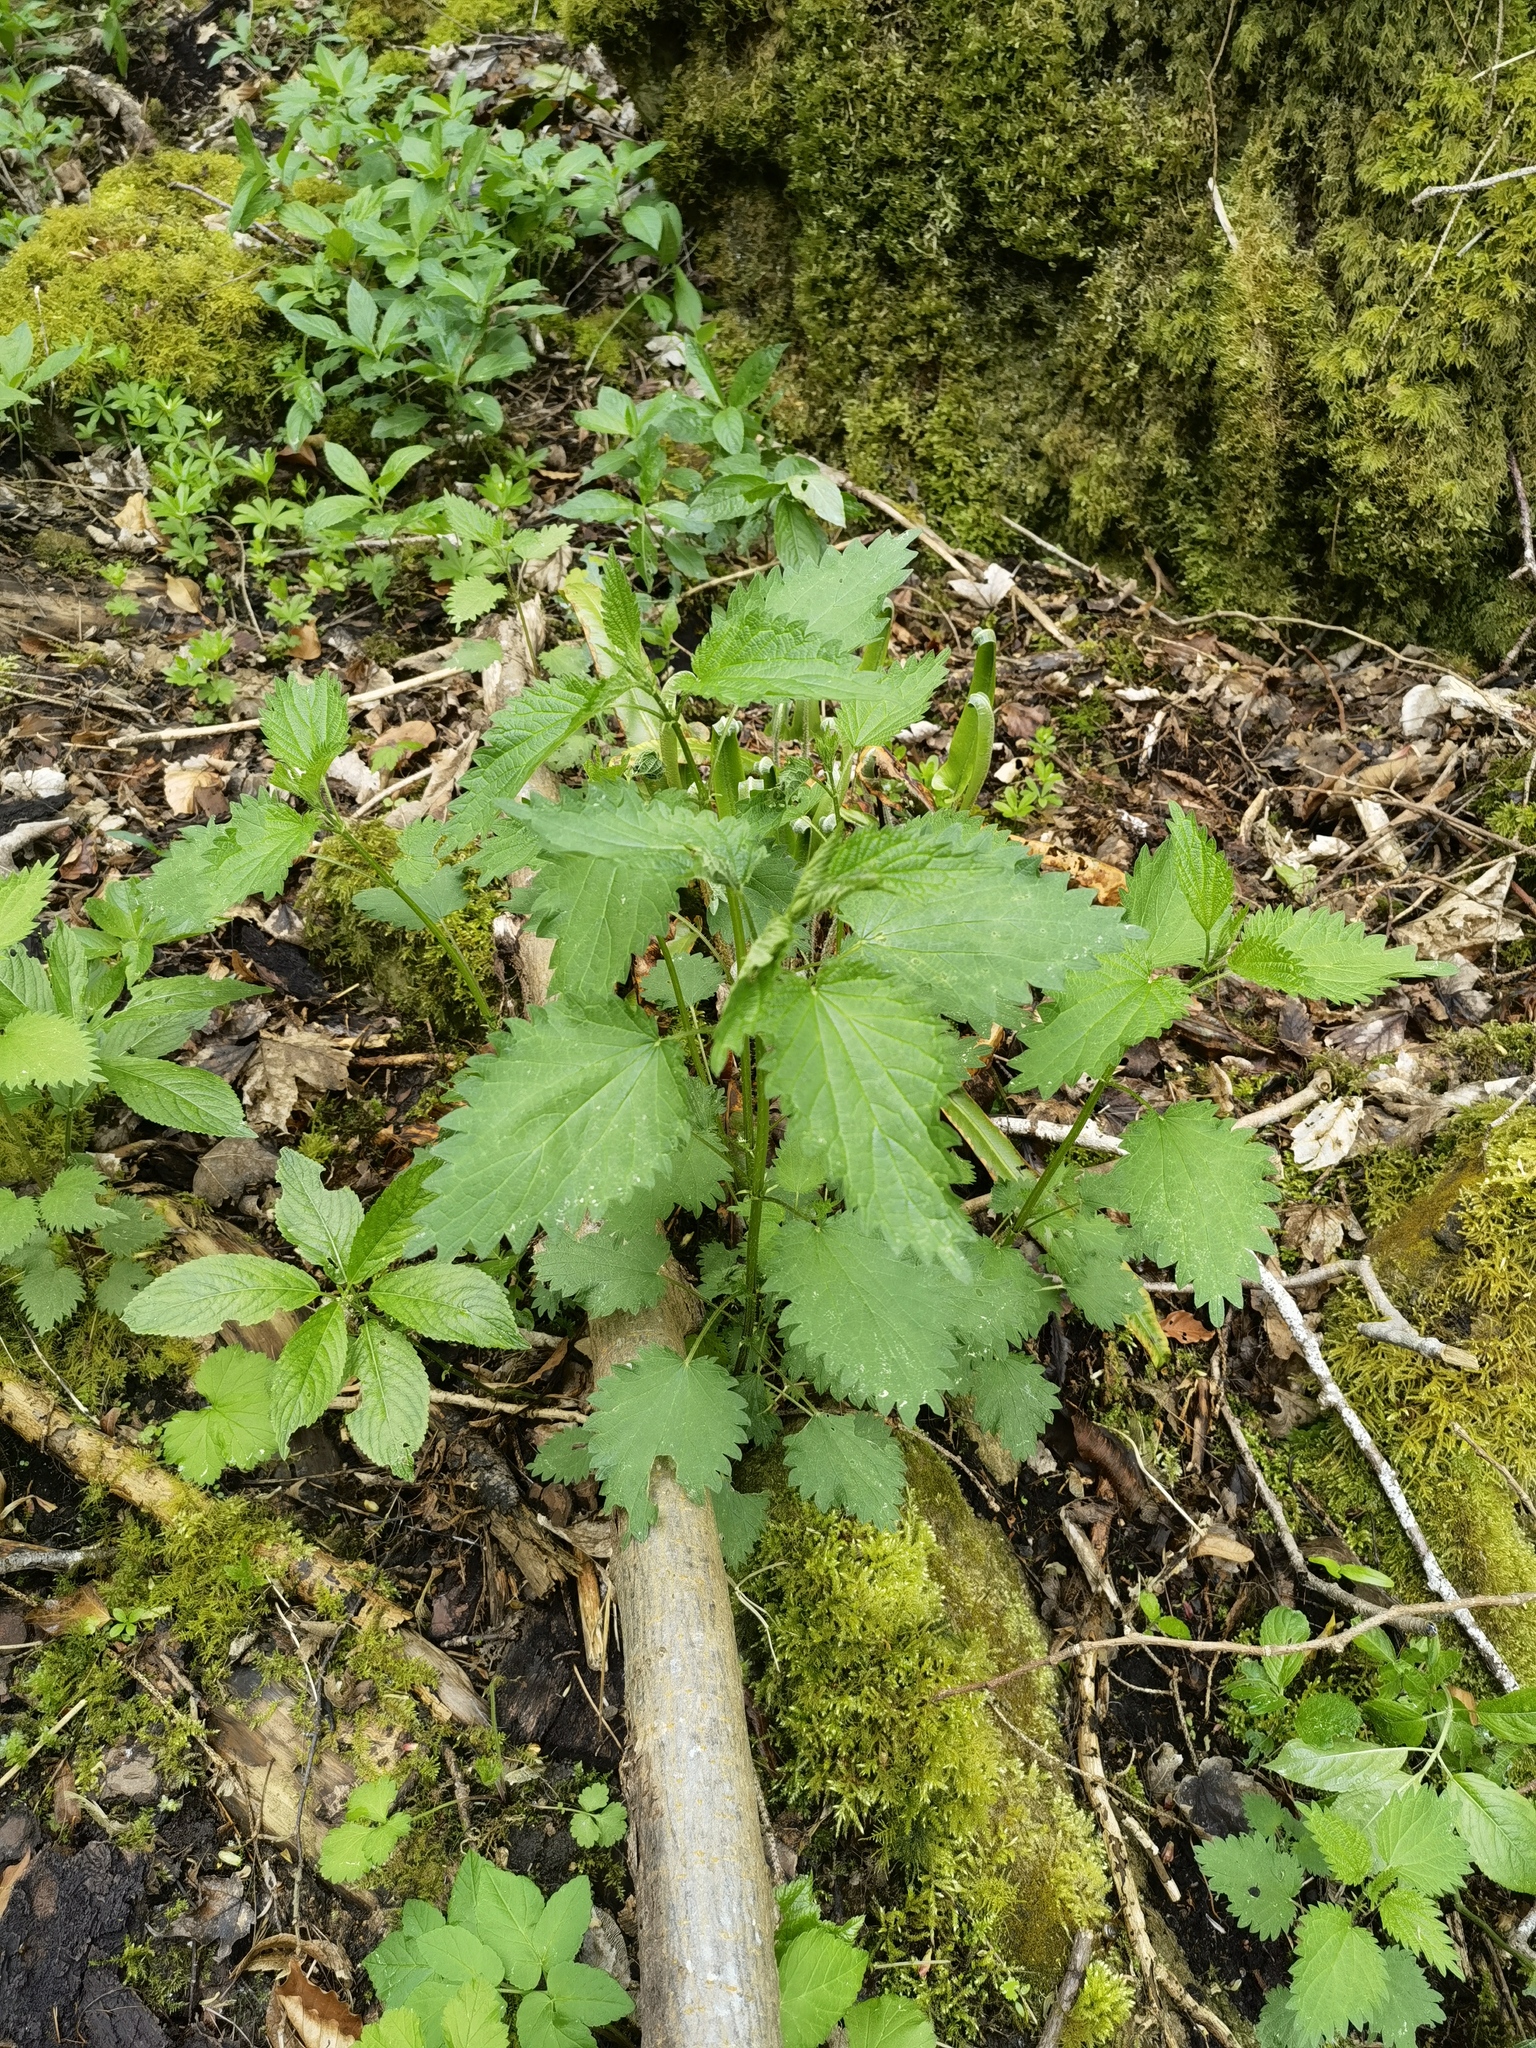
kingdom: Plantae
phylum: Tracheophyta
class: Magnoliopsida
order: Rosales
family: Urticaceae
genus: Urtica
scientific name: Urtica dioica
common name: Common nettle
